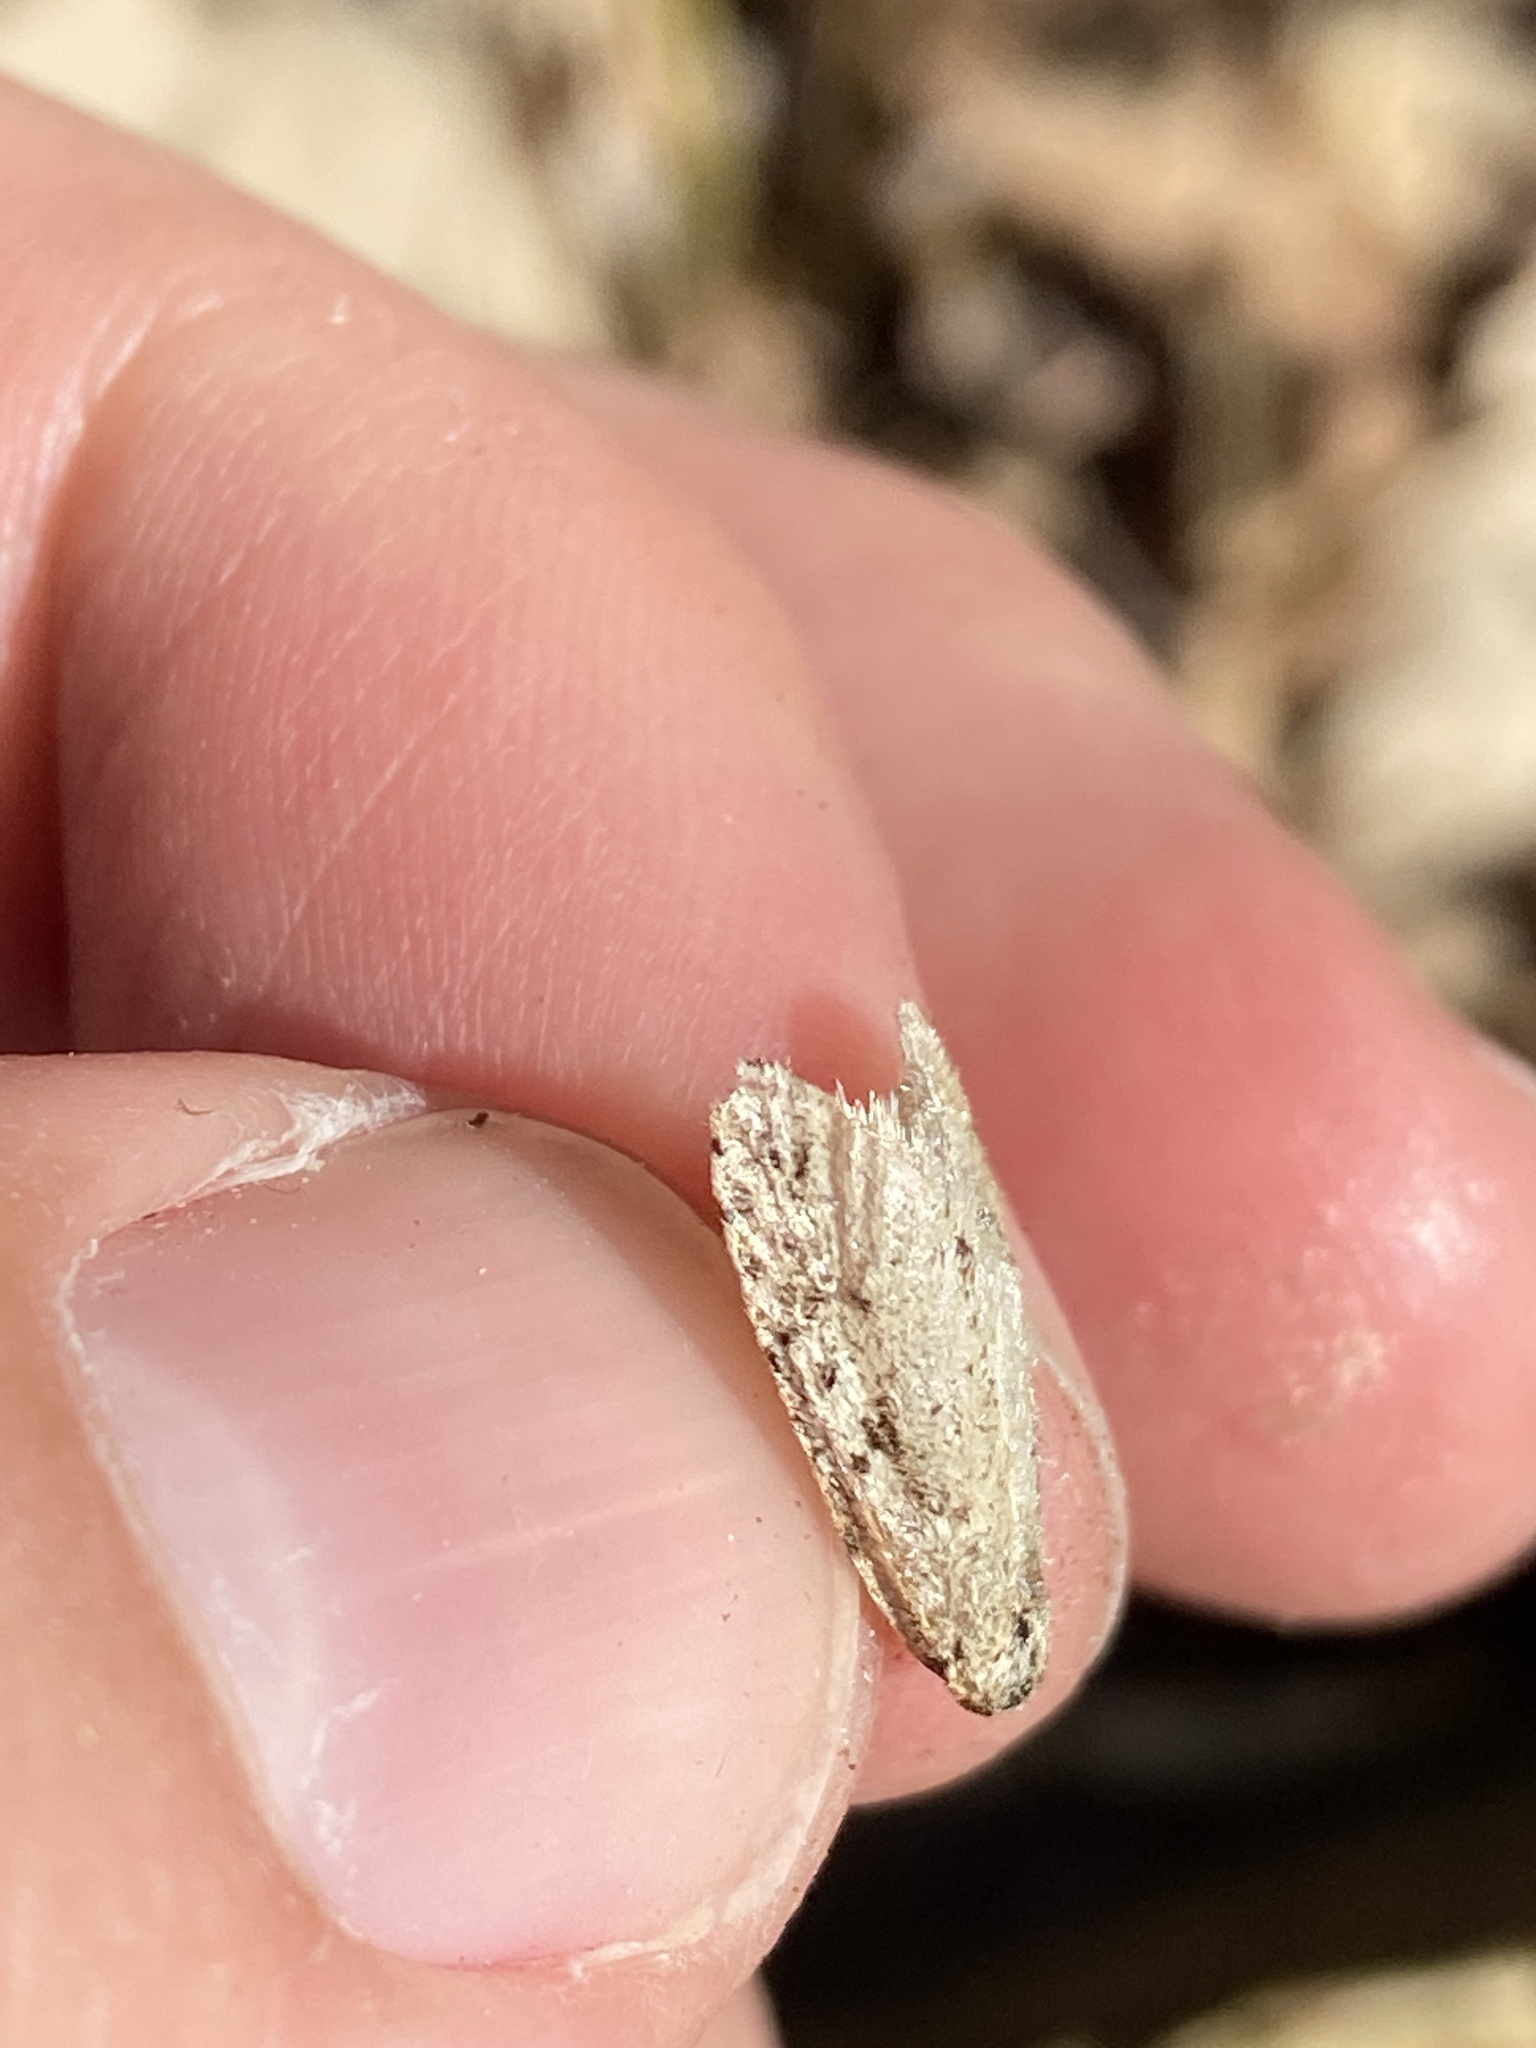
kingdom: Animalia
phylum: Arthropoda
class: Insecta
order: Lepidoptera
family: Lypusidae
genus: Diurnea
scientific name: Diurnea fagella
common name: March tubic
